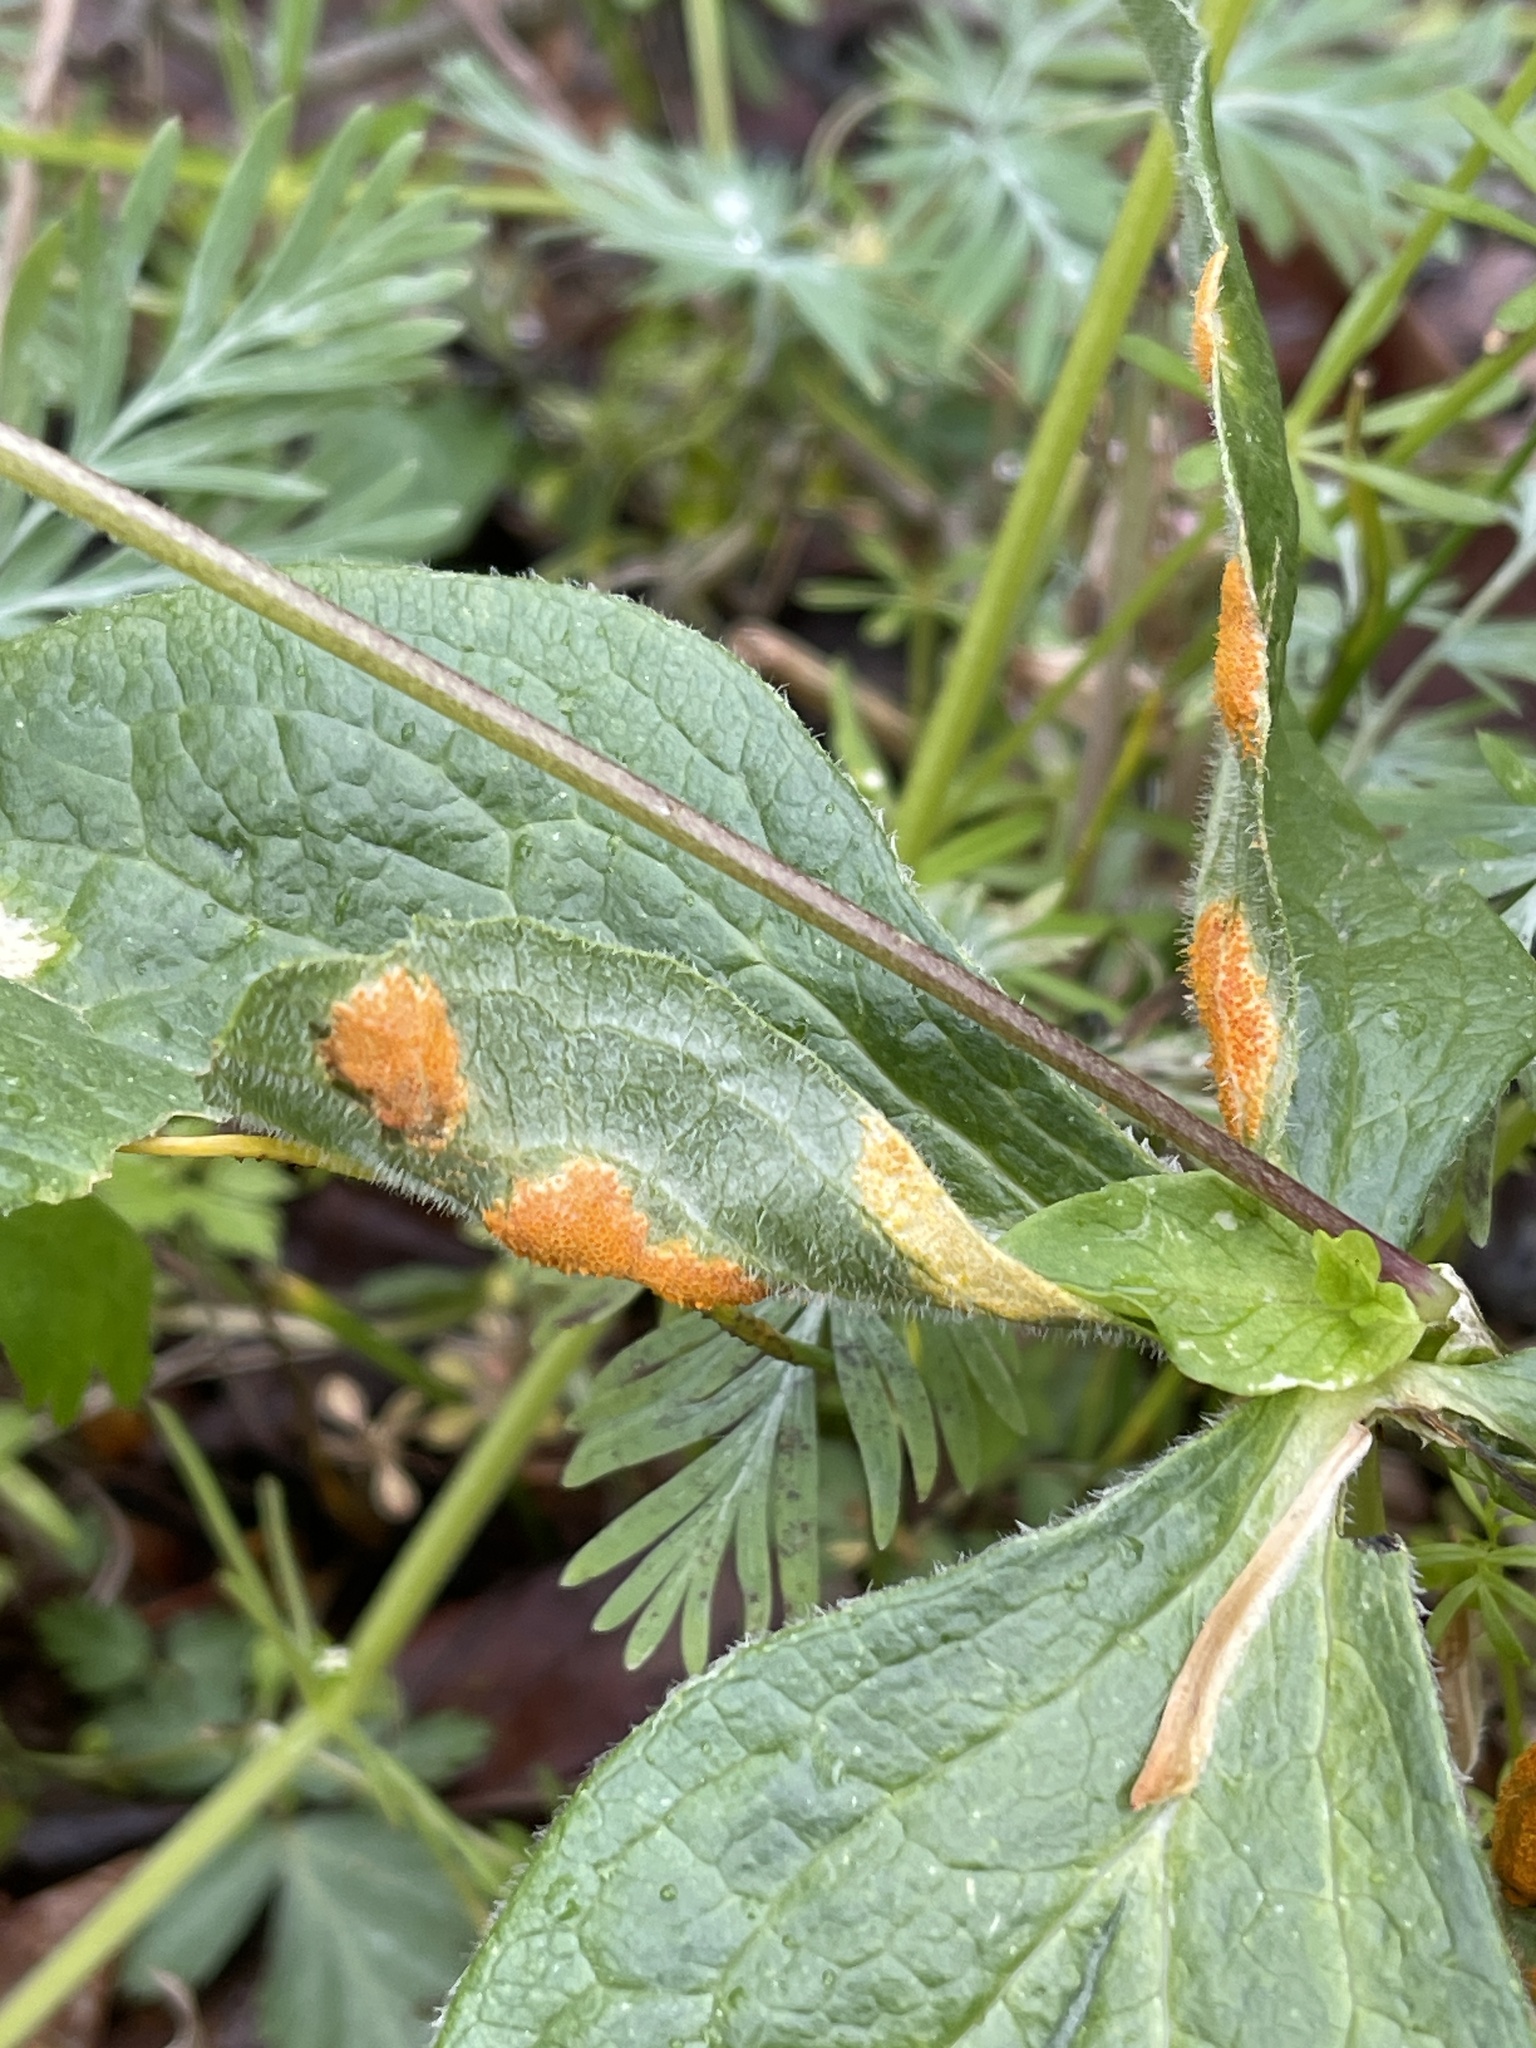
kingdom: Fungi
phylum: Basidiomycota
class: Pucciniomycetes
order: Pucciniales
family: Pucciniaceae
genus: Puccinia
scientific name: Puccinia podophylli
